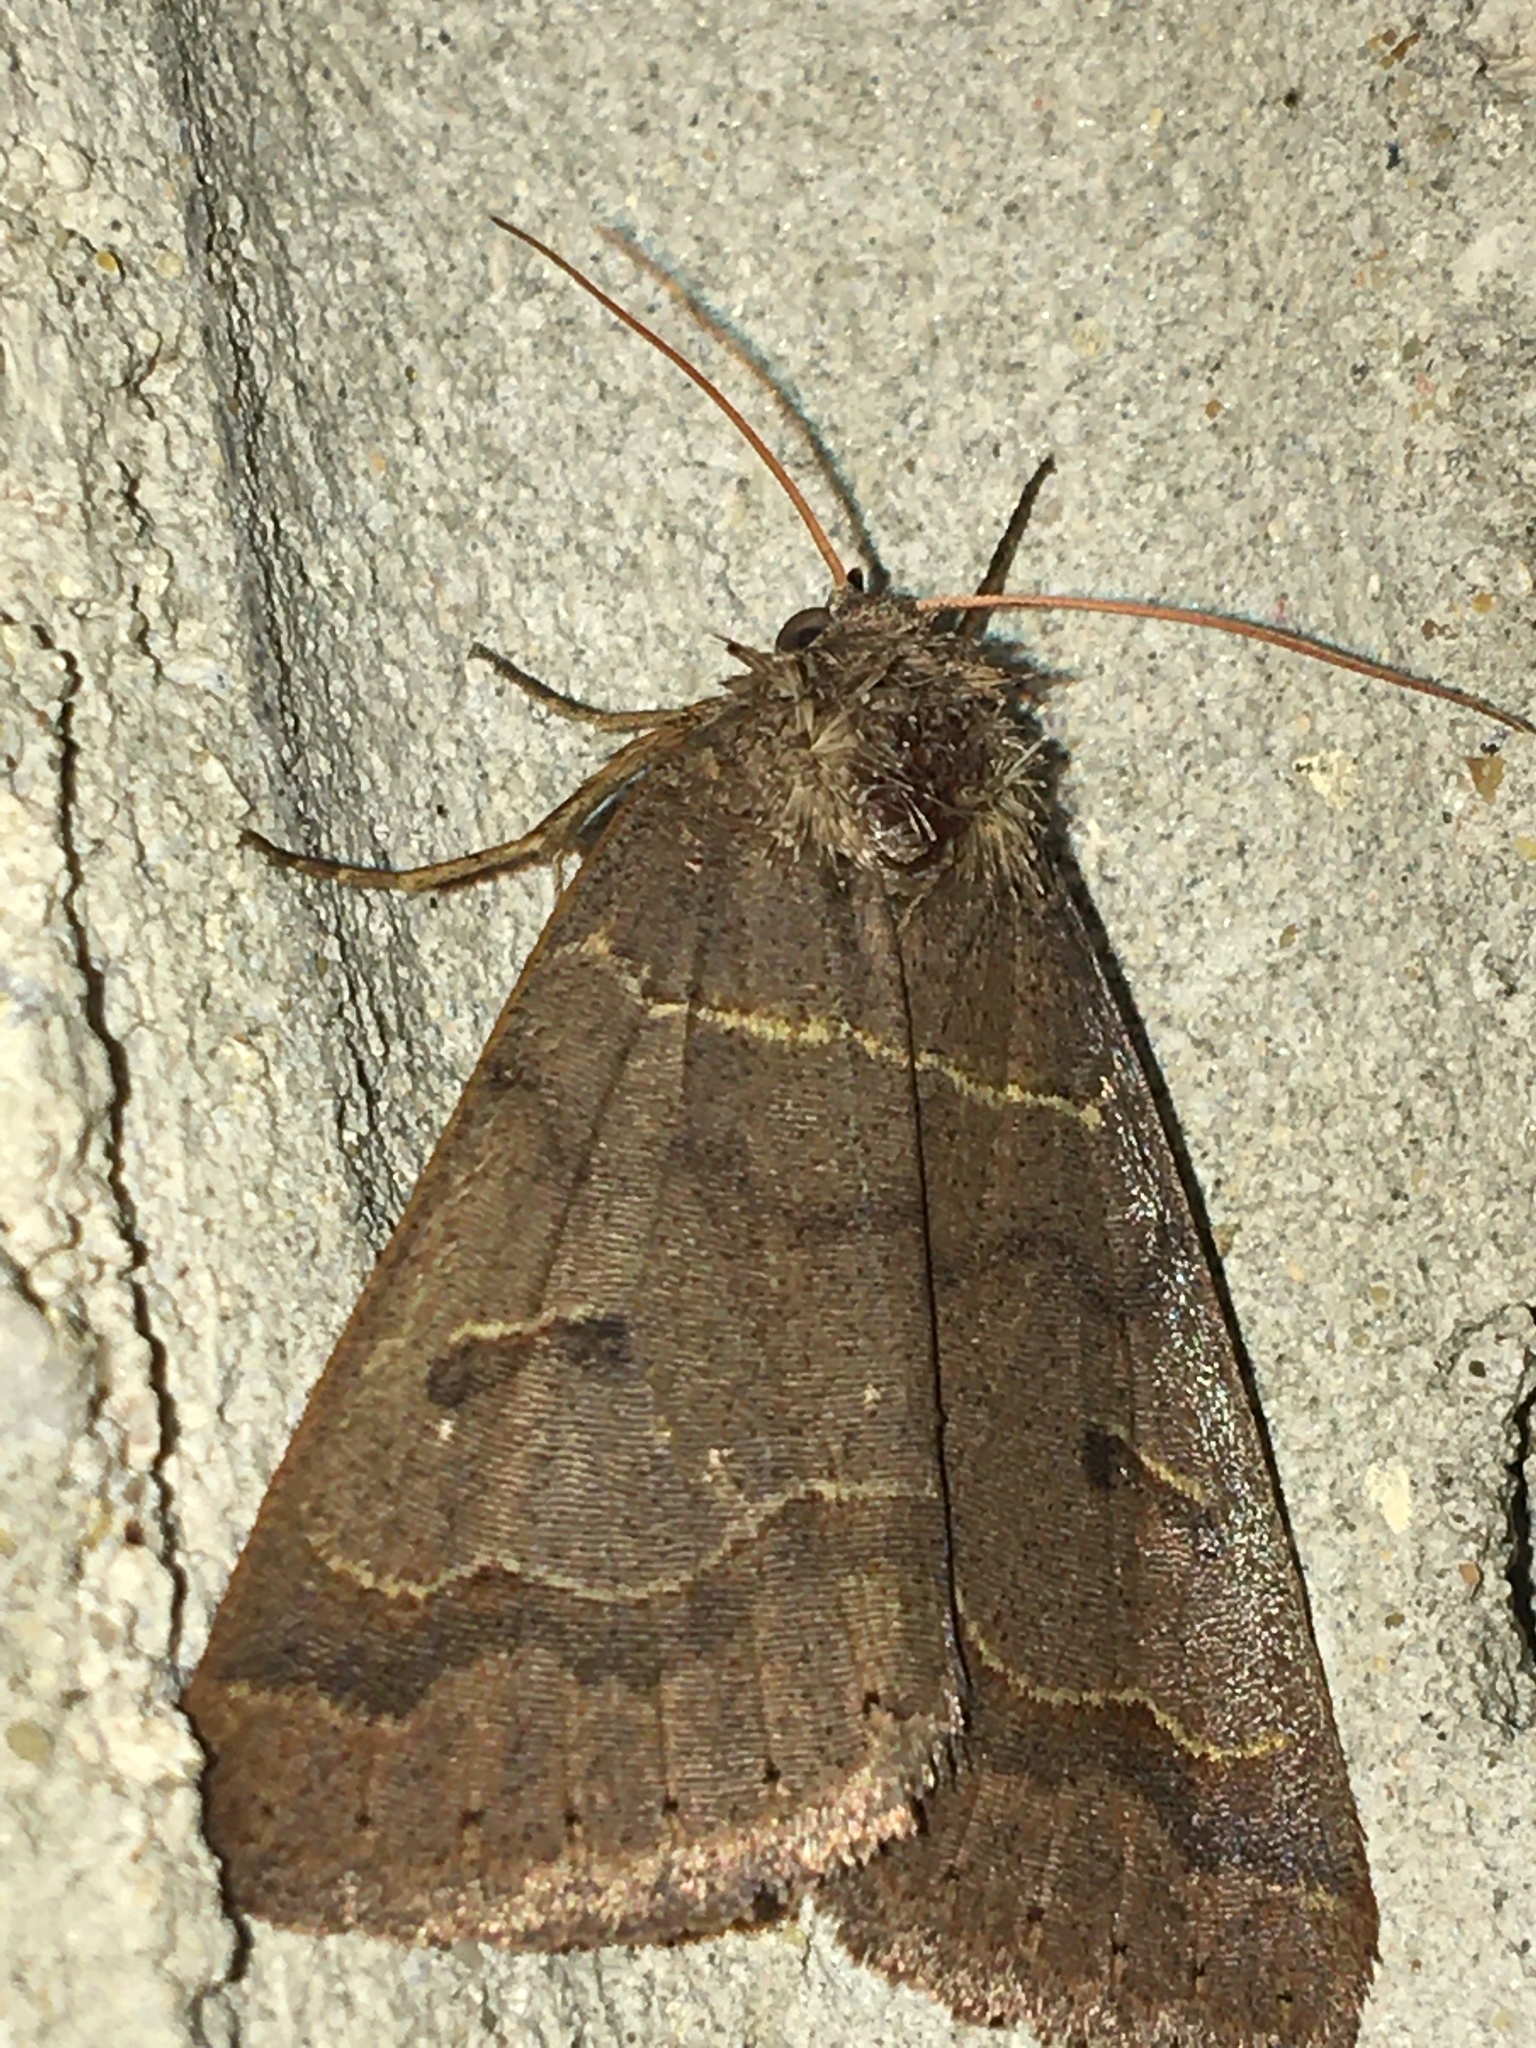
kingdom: Animalia
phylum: Arthropoda
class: Insecta
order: Lepidoptera
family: Erebidae
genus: Phoberia
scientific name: Phoberia atomaris
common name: Common oak moth
